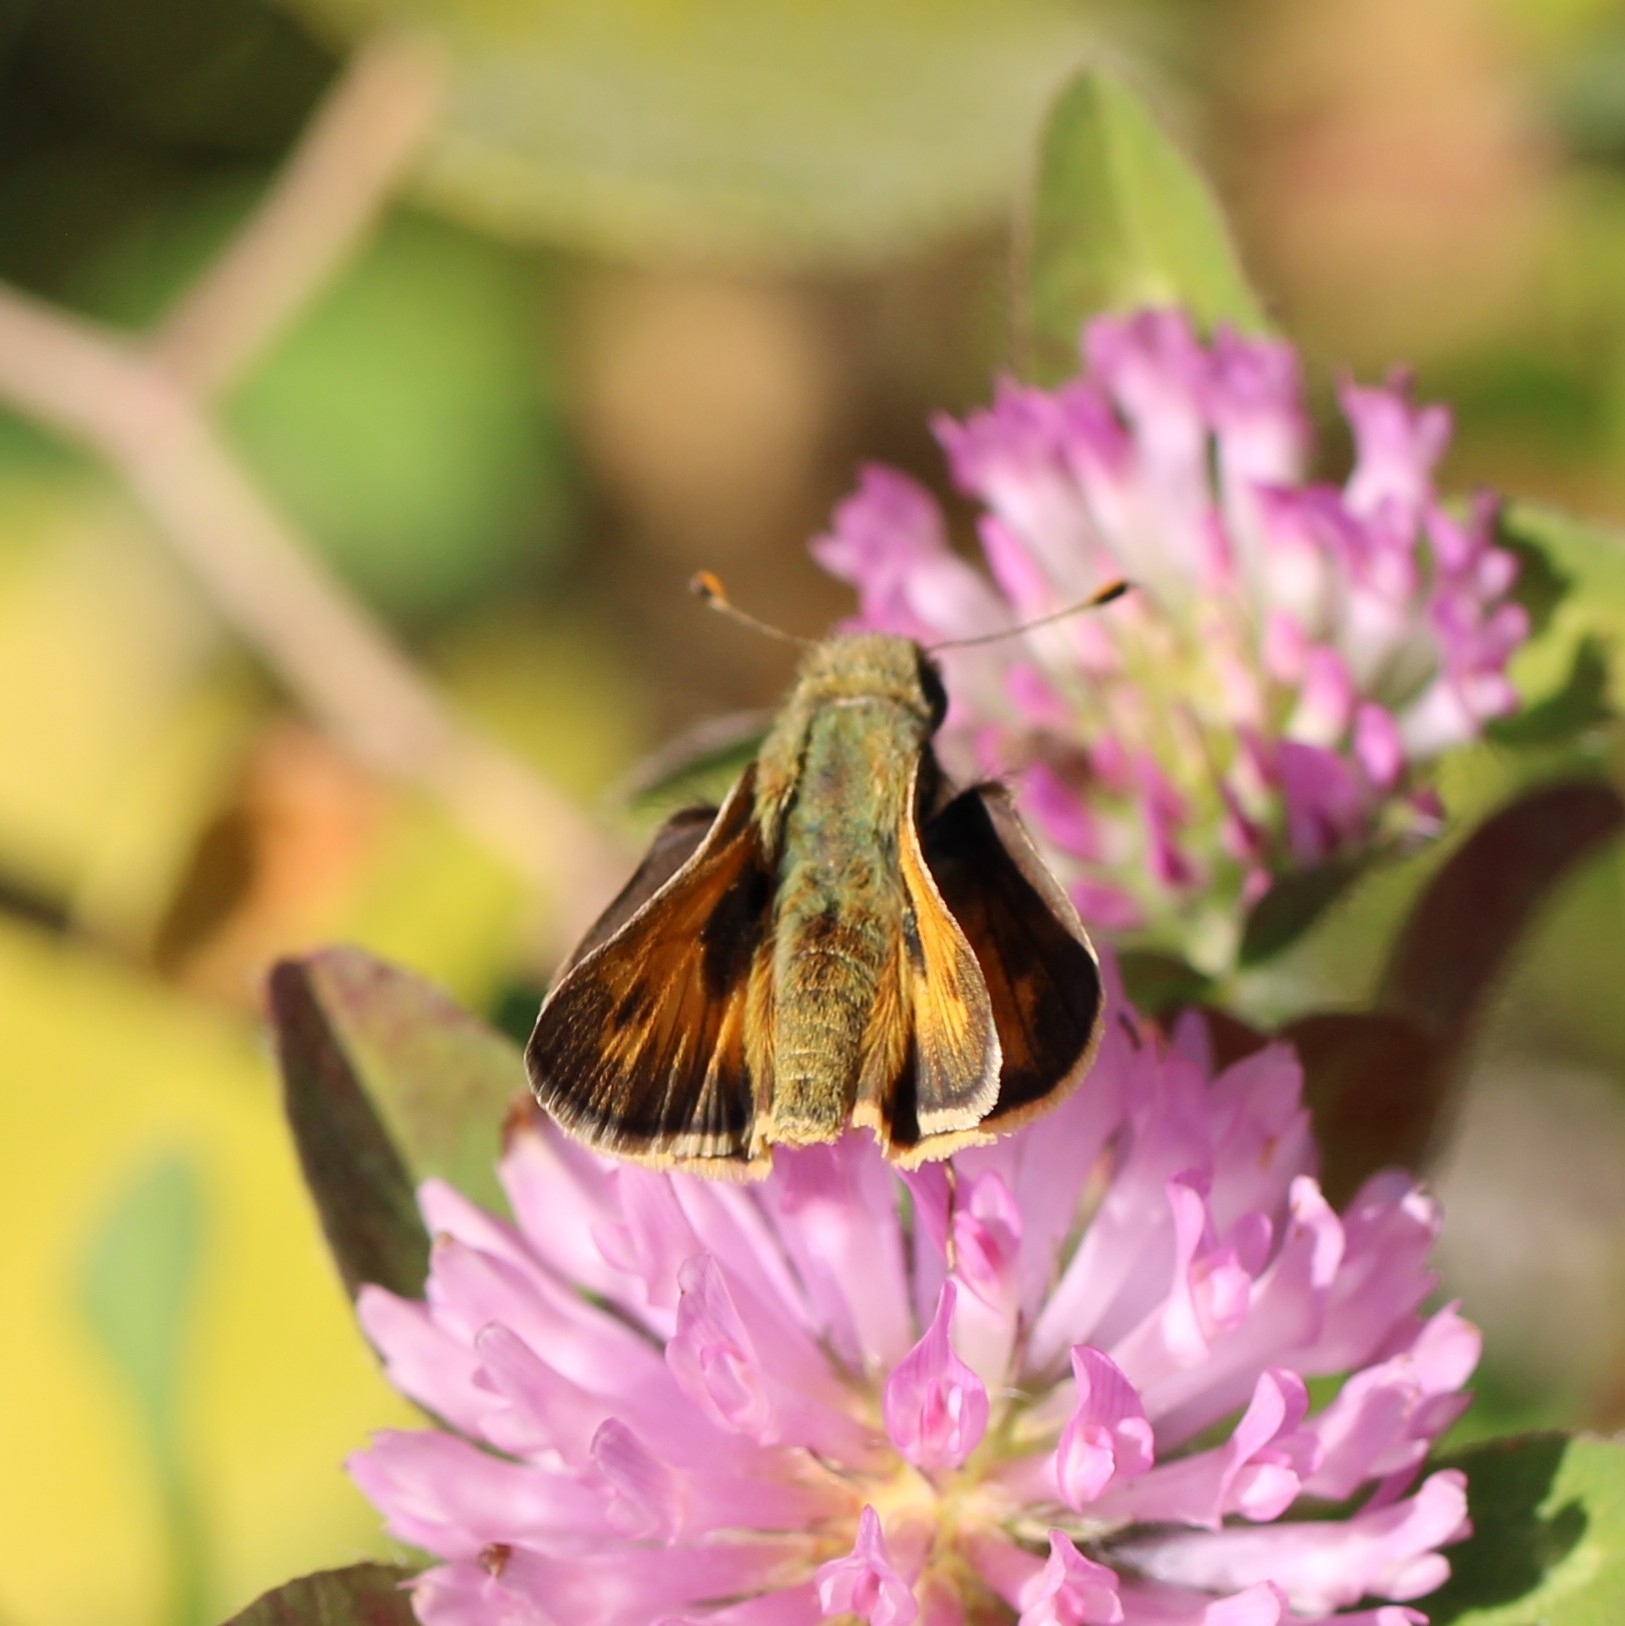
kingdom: Animalia
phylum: Arthropoda
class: Insecta
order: Lepidoptera
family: Hesperiidae
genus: Atalopedes
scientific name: Atalopedes
